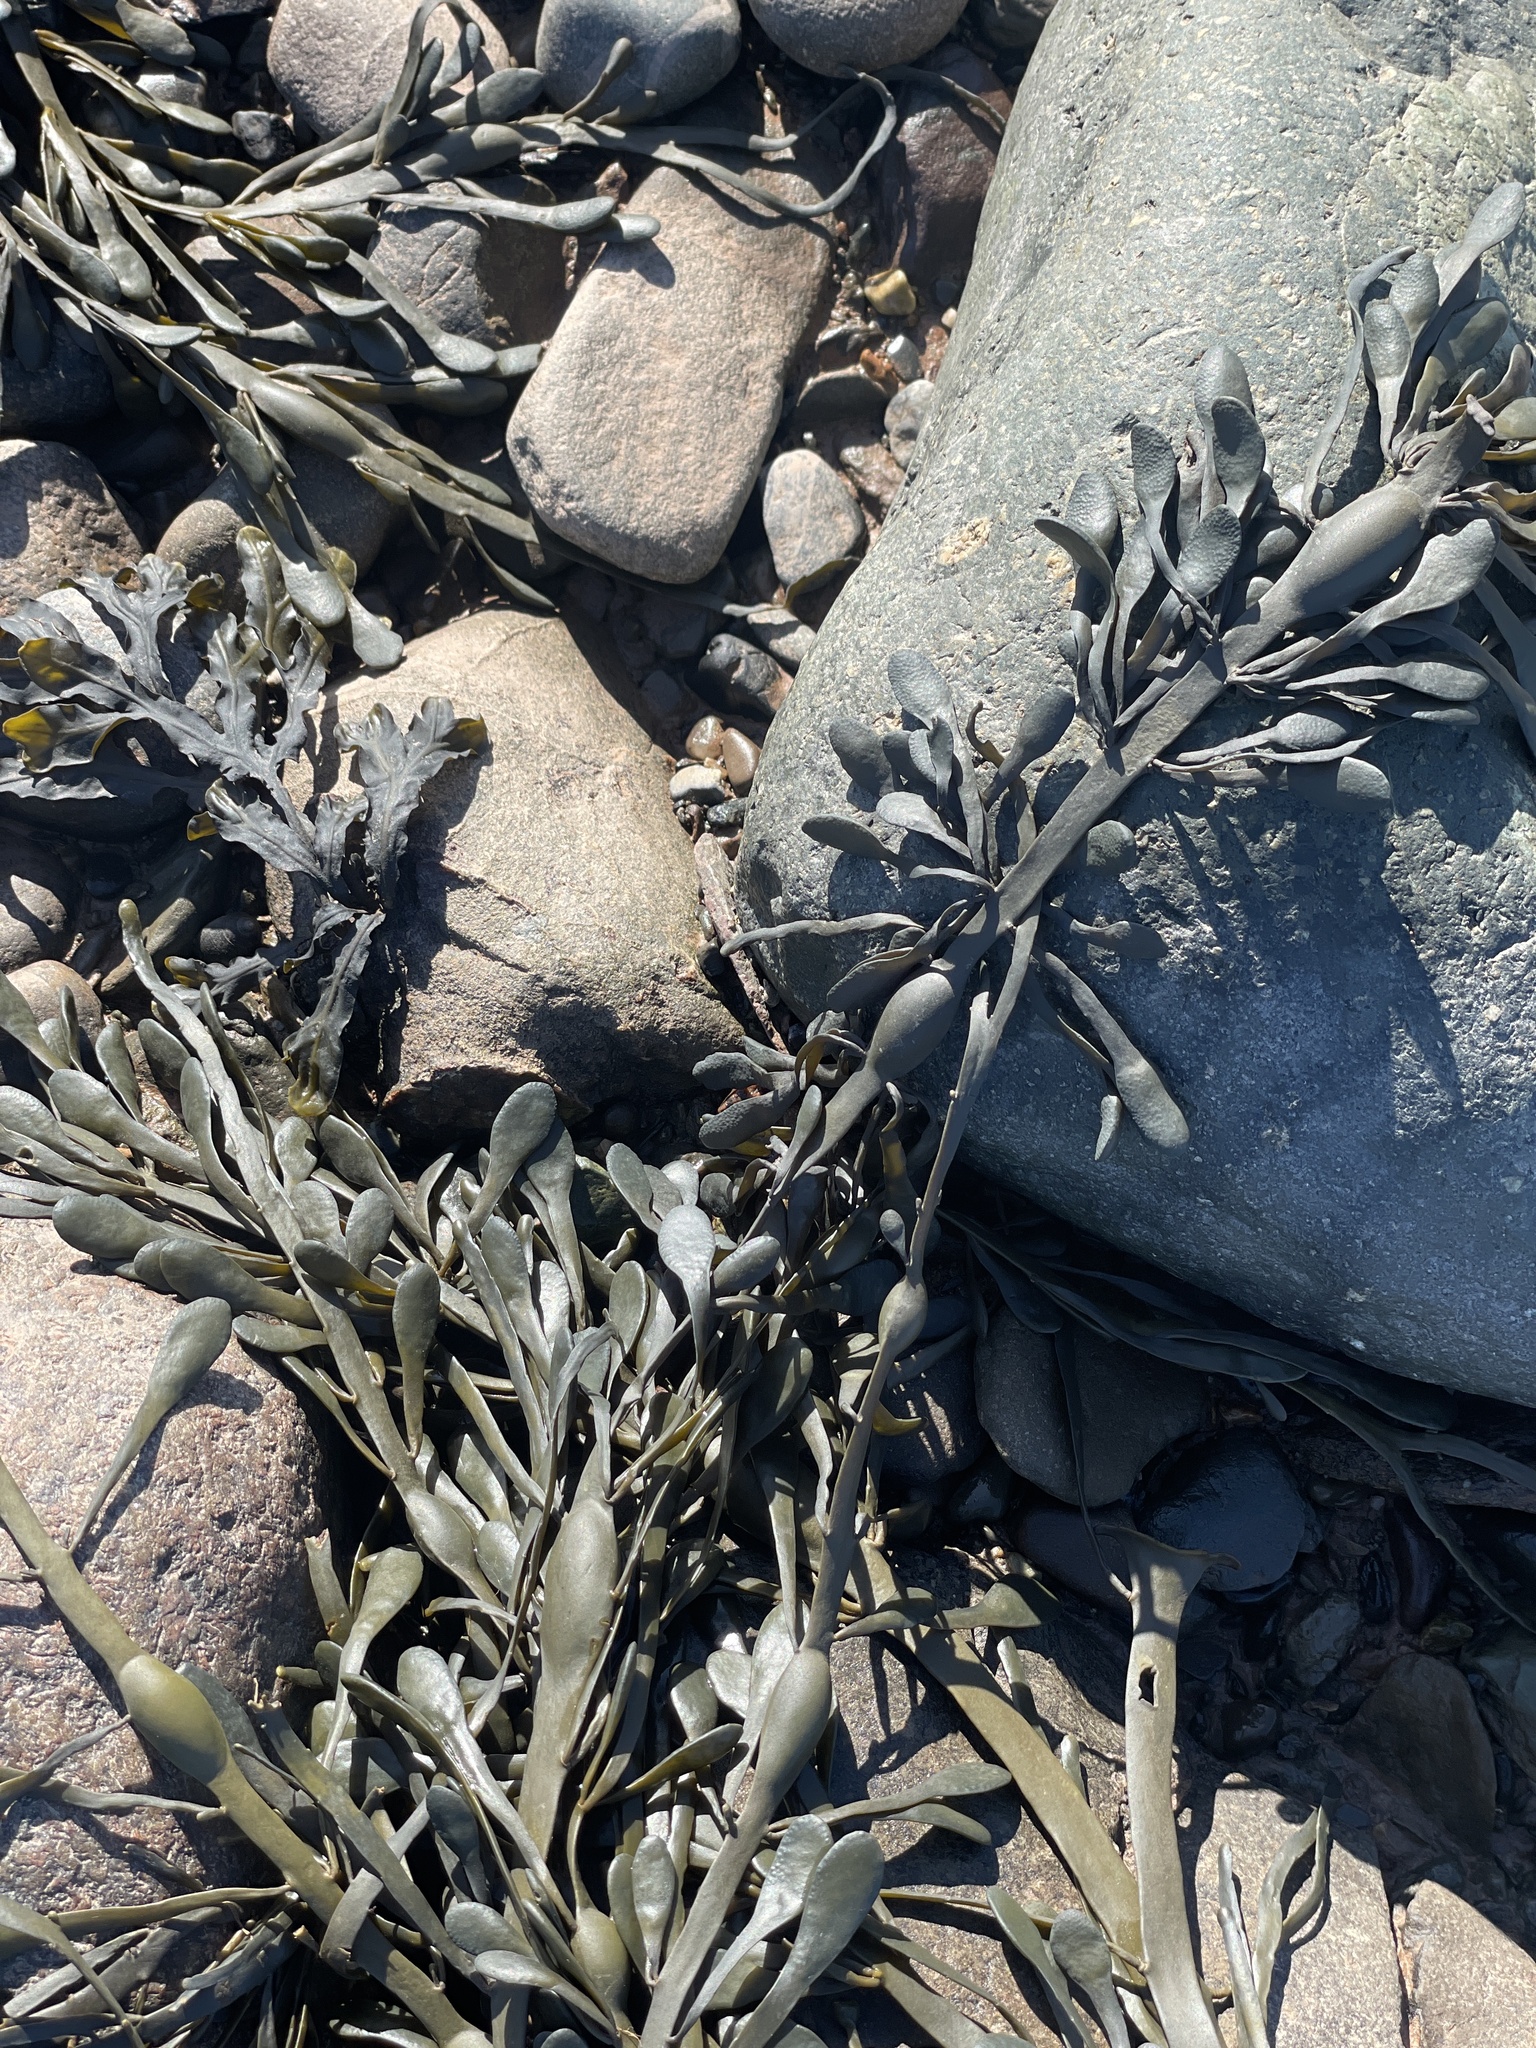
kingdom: Chromista
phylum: Ochrophyta
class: Phaeophyceae
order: Fucales
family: Fucaceae
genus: Ascophyllum
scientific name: Ascophyllum nodosum
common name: Knotted wrack
